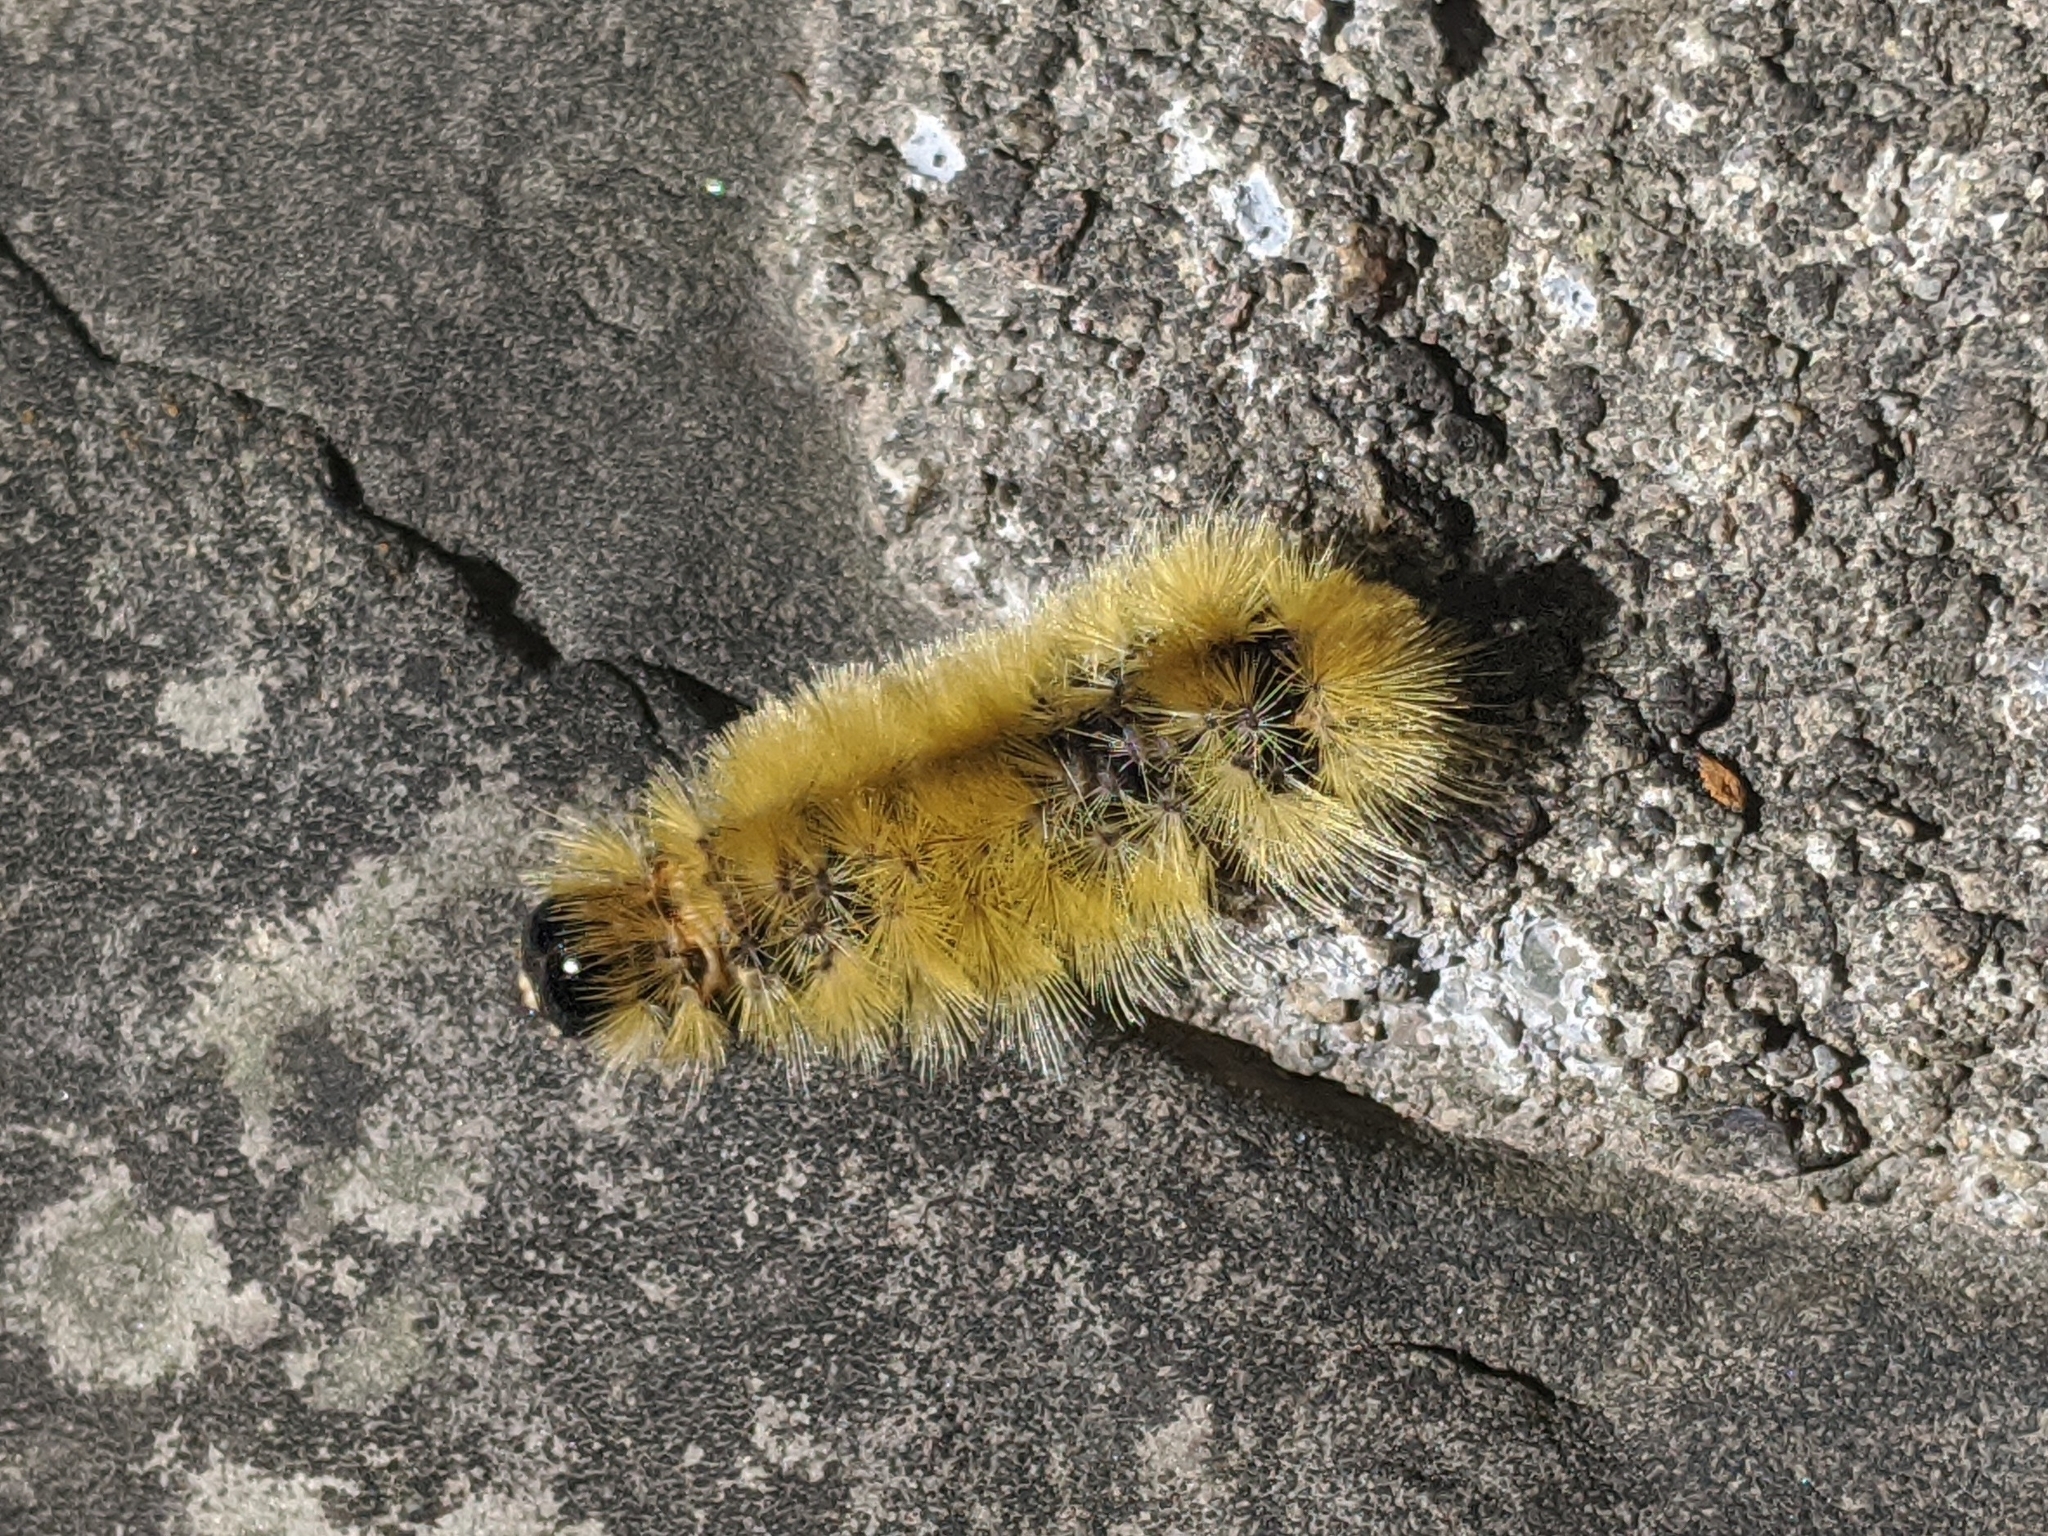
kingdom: Animalia
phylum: Arthropoda
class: Insecta
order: Lepidoptera
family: Erebidae
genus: Halysidota
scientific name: Halysidota tessellaris
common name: Banded tussock moth
